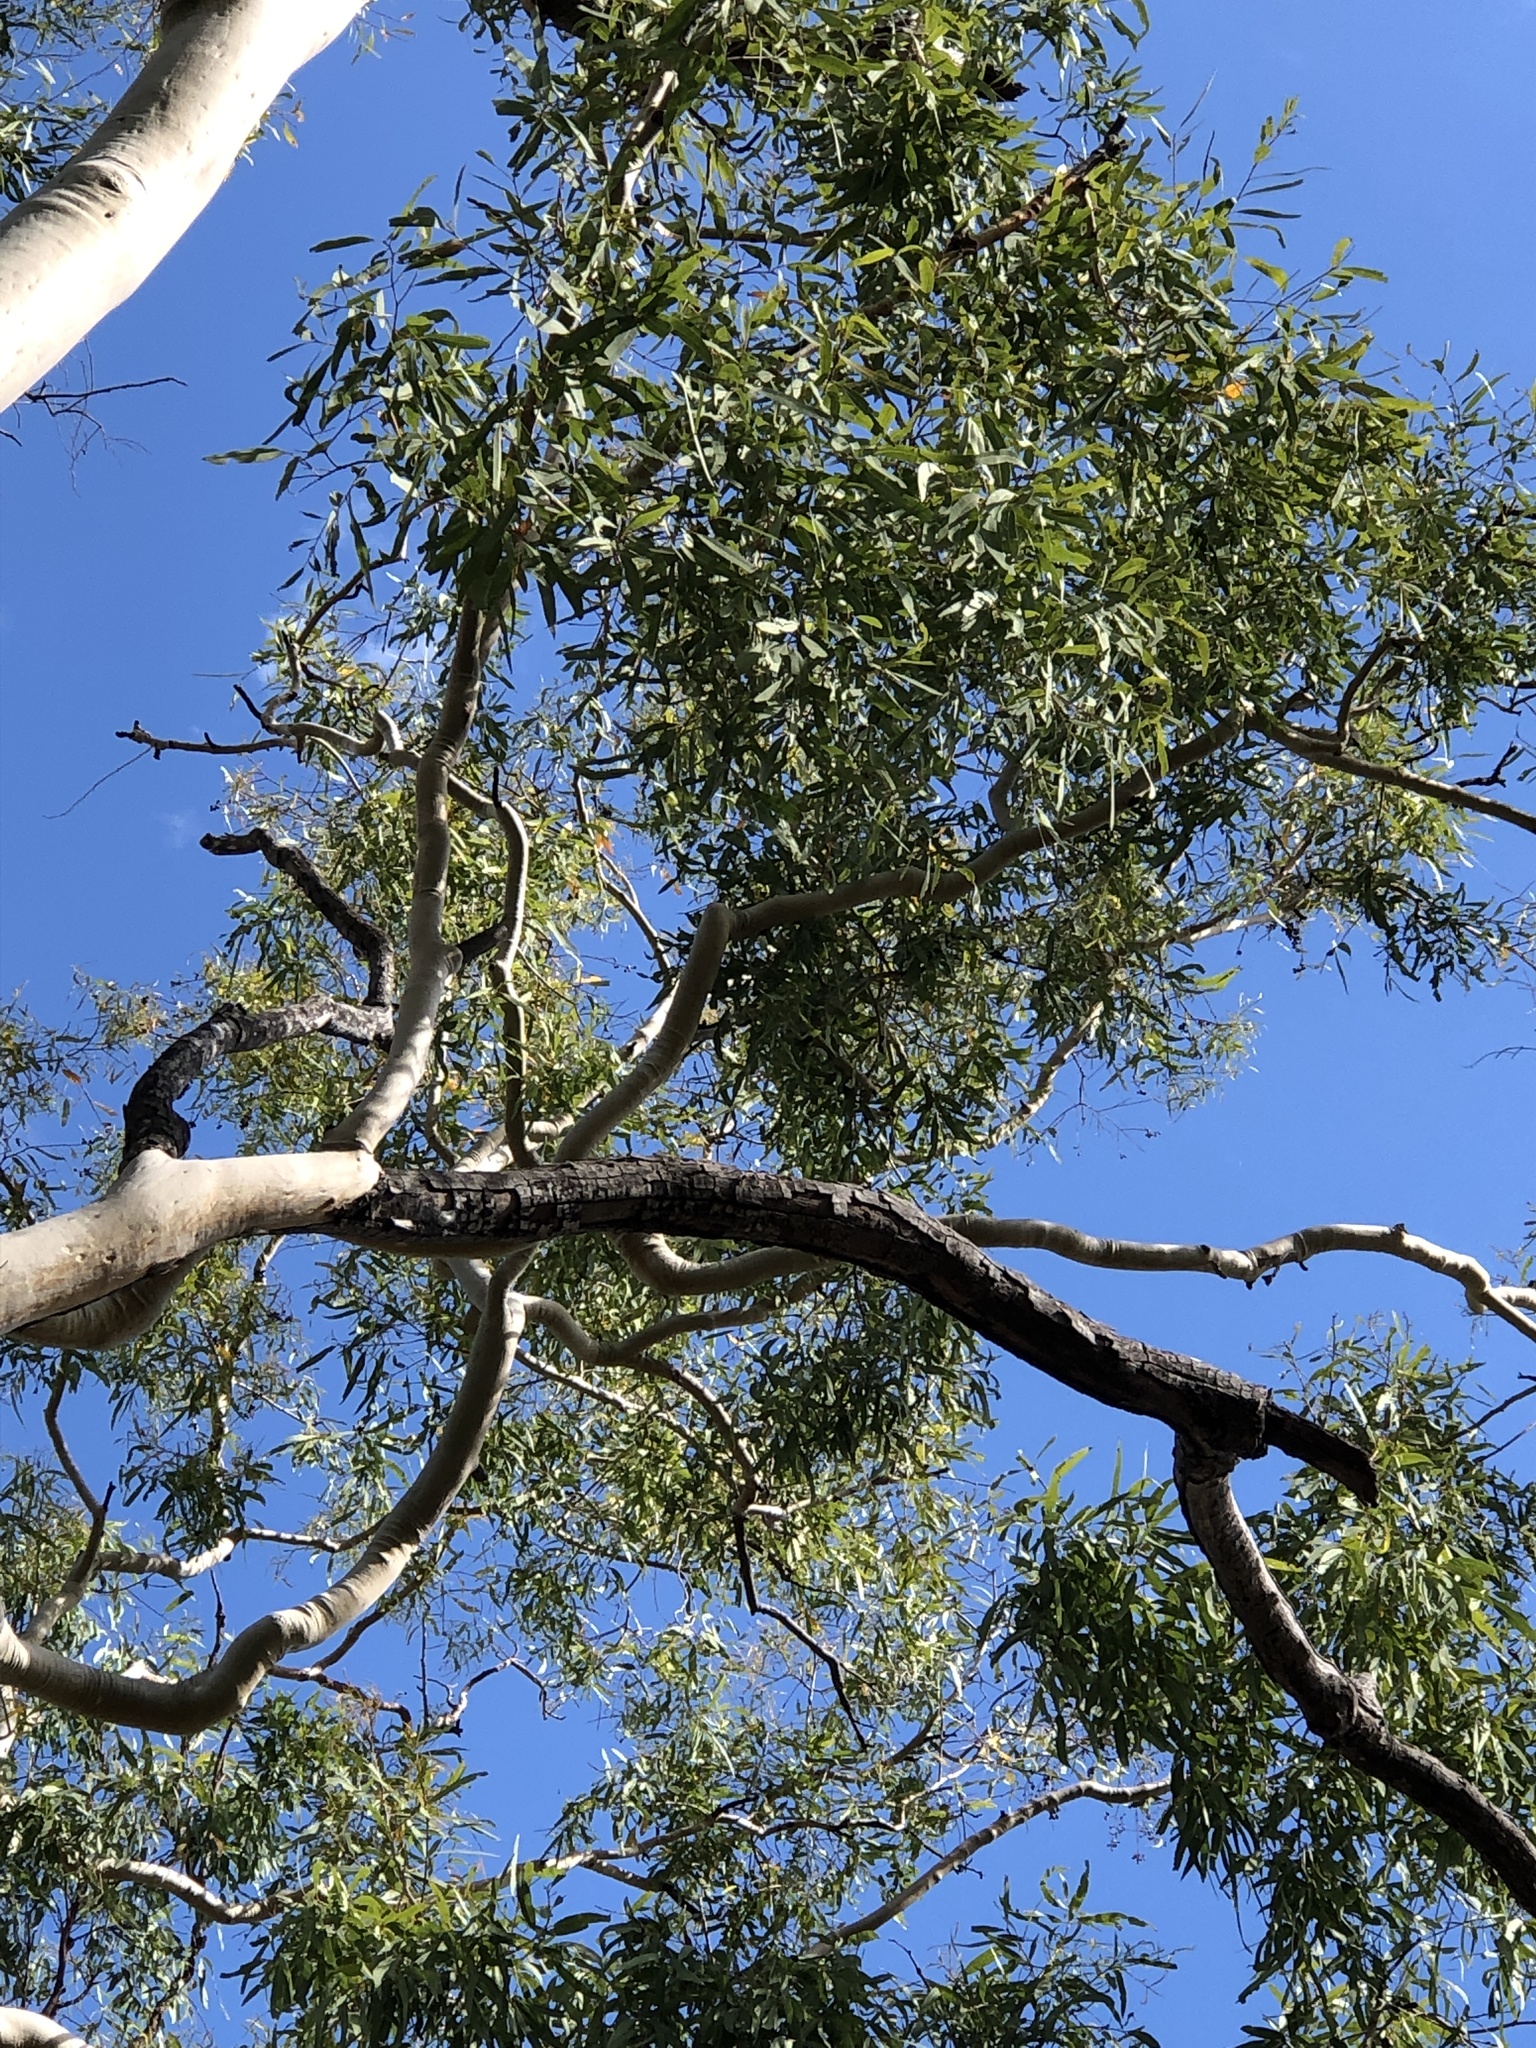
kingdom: Plantae
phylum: Tracheophyta
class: Magnoliopsida
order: Myrtales
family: Myrtaceae
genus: Corymbia
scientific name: Corymbia tessellaris
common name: Carbeen
